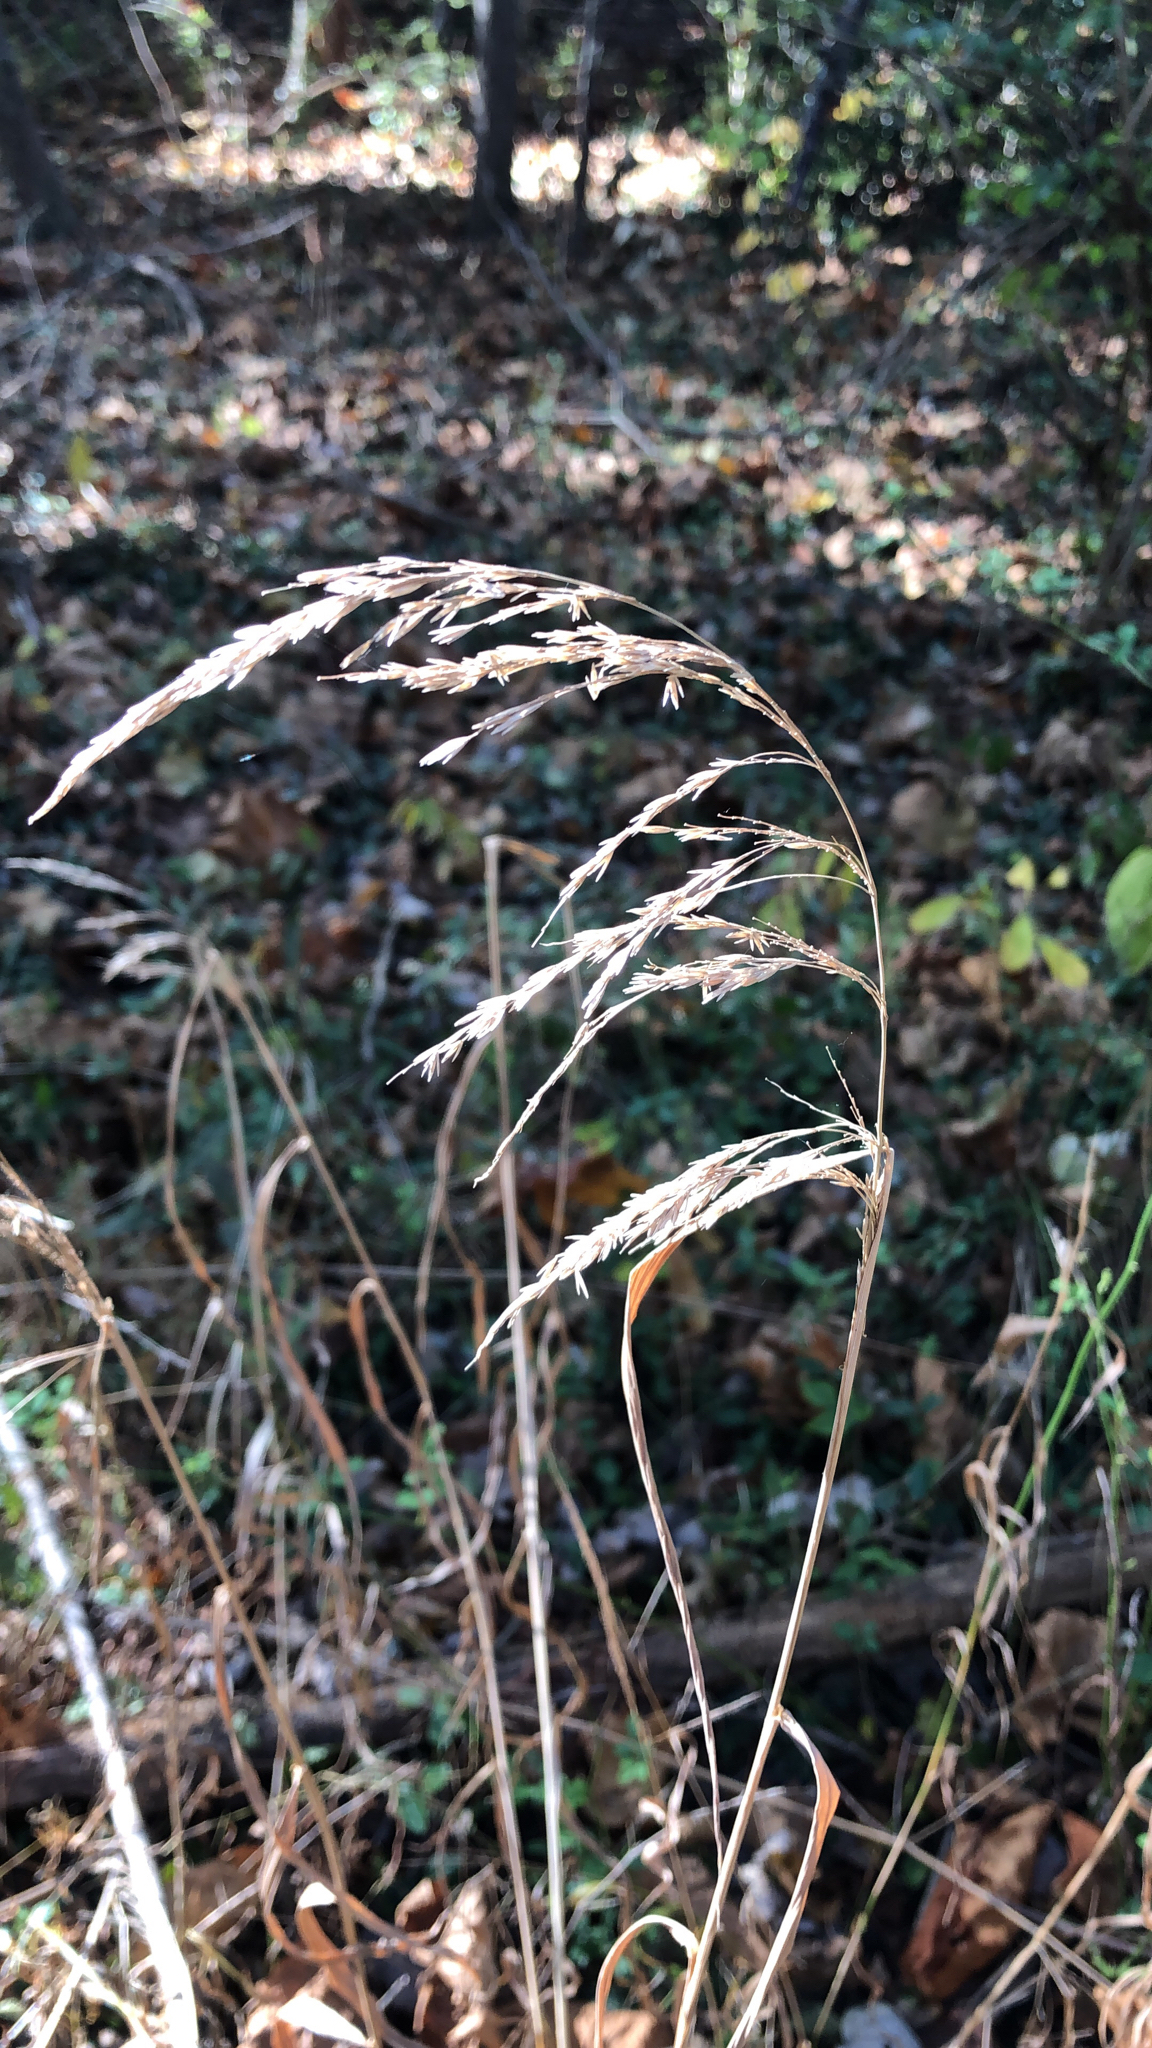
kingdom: Plantae
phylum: Tracheophyta
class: Liliopsida
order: Poales
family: Poaceae
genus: Cinna
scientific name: Cinna arundinacea
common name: Stout woodreed
